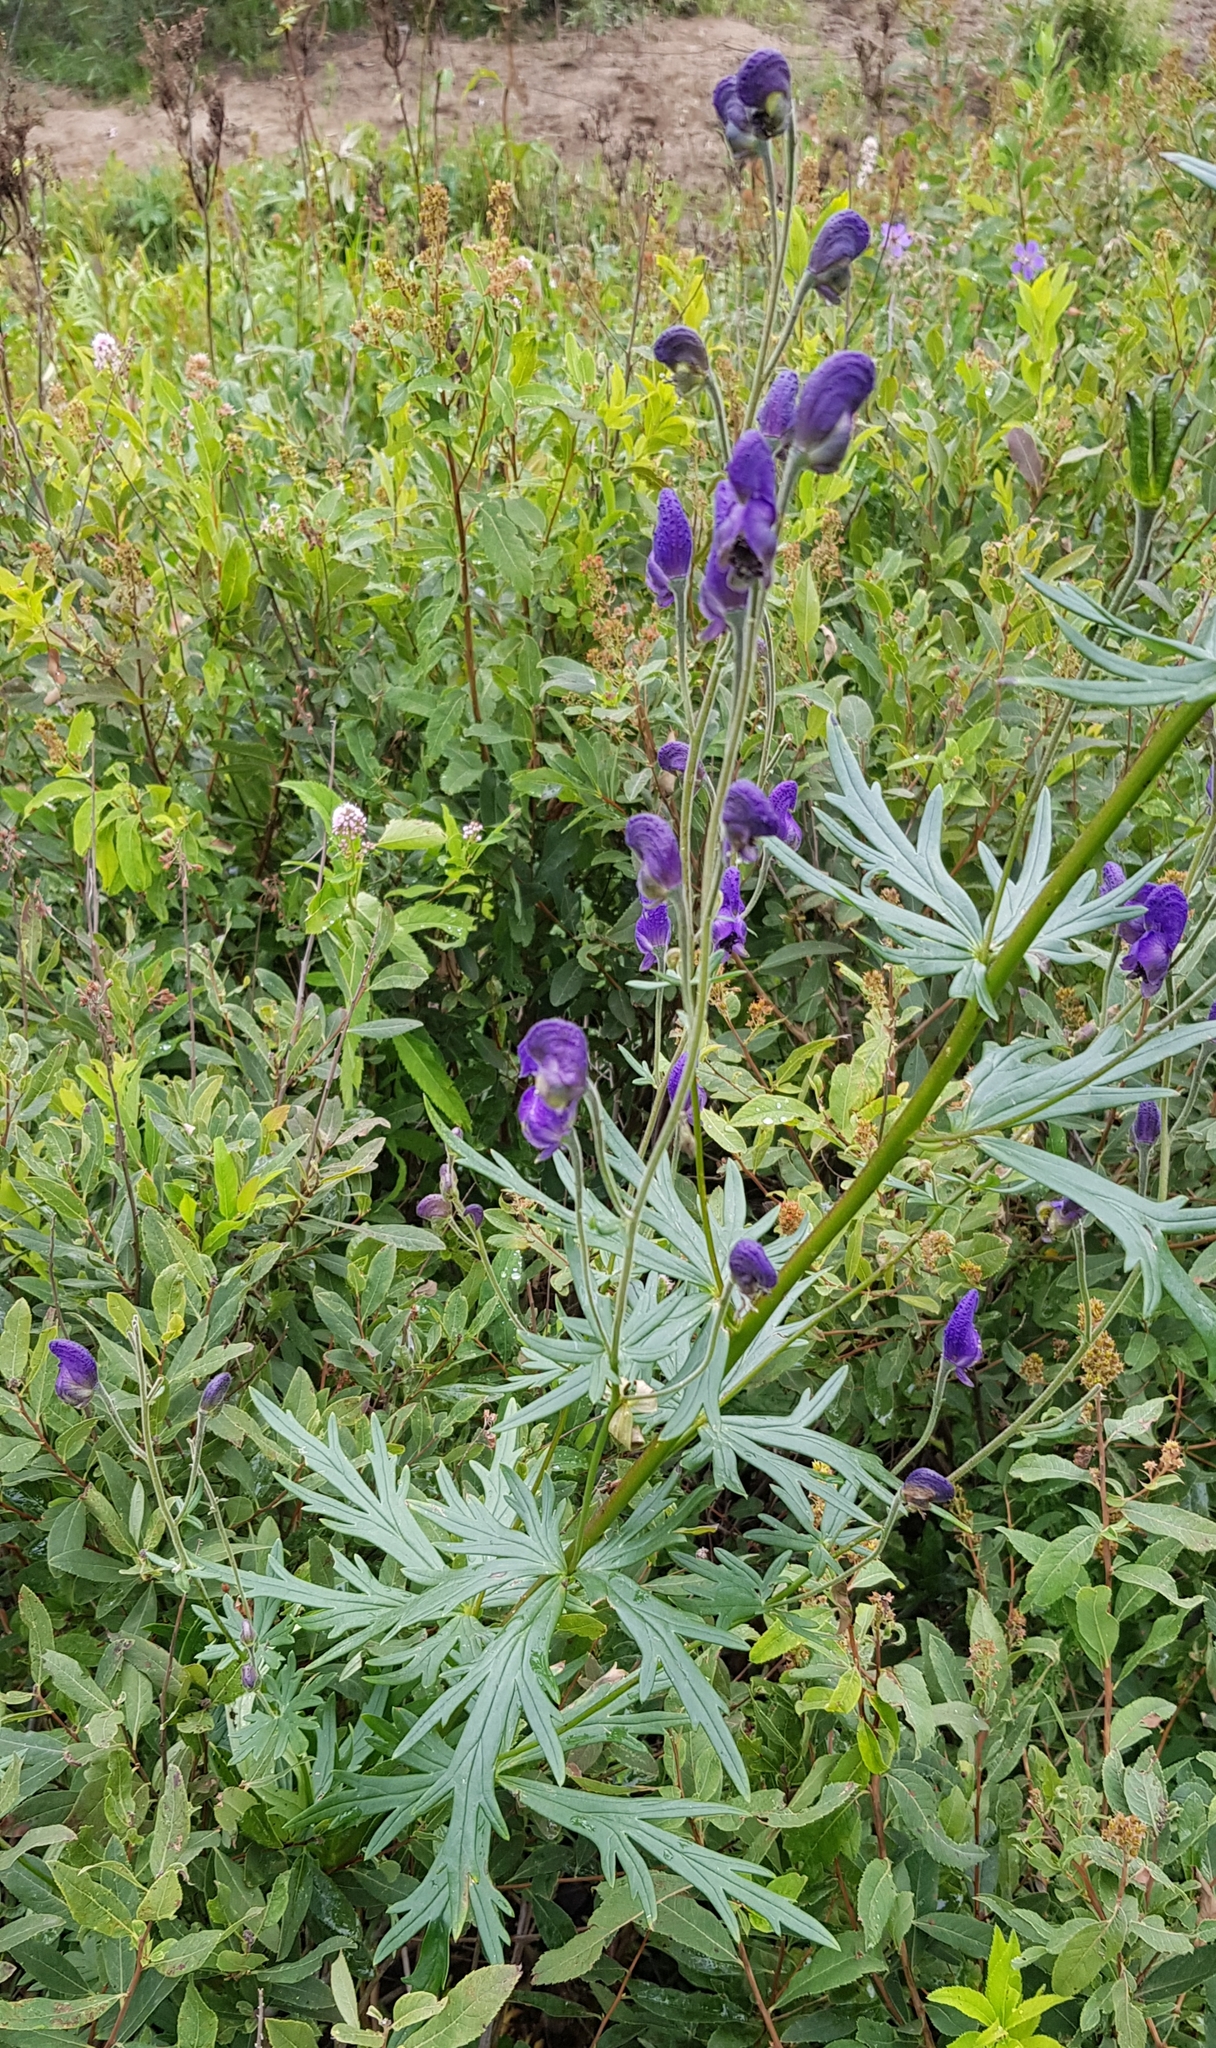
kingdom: Plantae
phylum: Tracheophyta
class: Magnoliopsida
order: Ranunculales
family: Ranunculaceae
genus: Aconitum
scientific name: Aconitum baicalense
